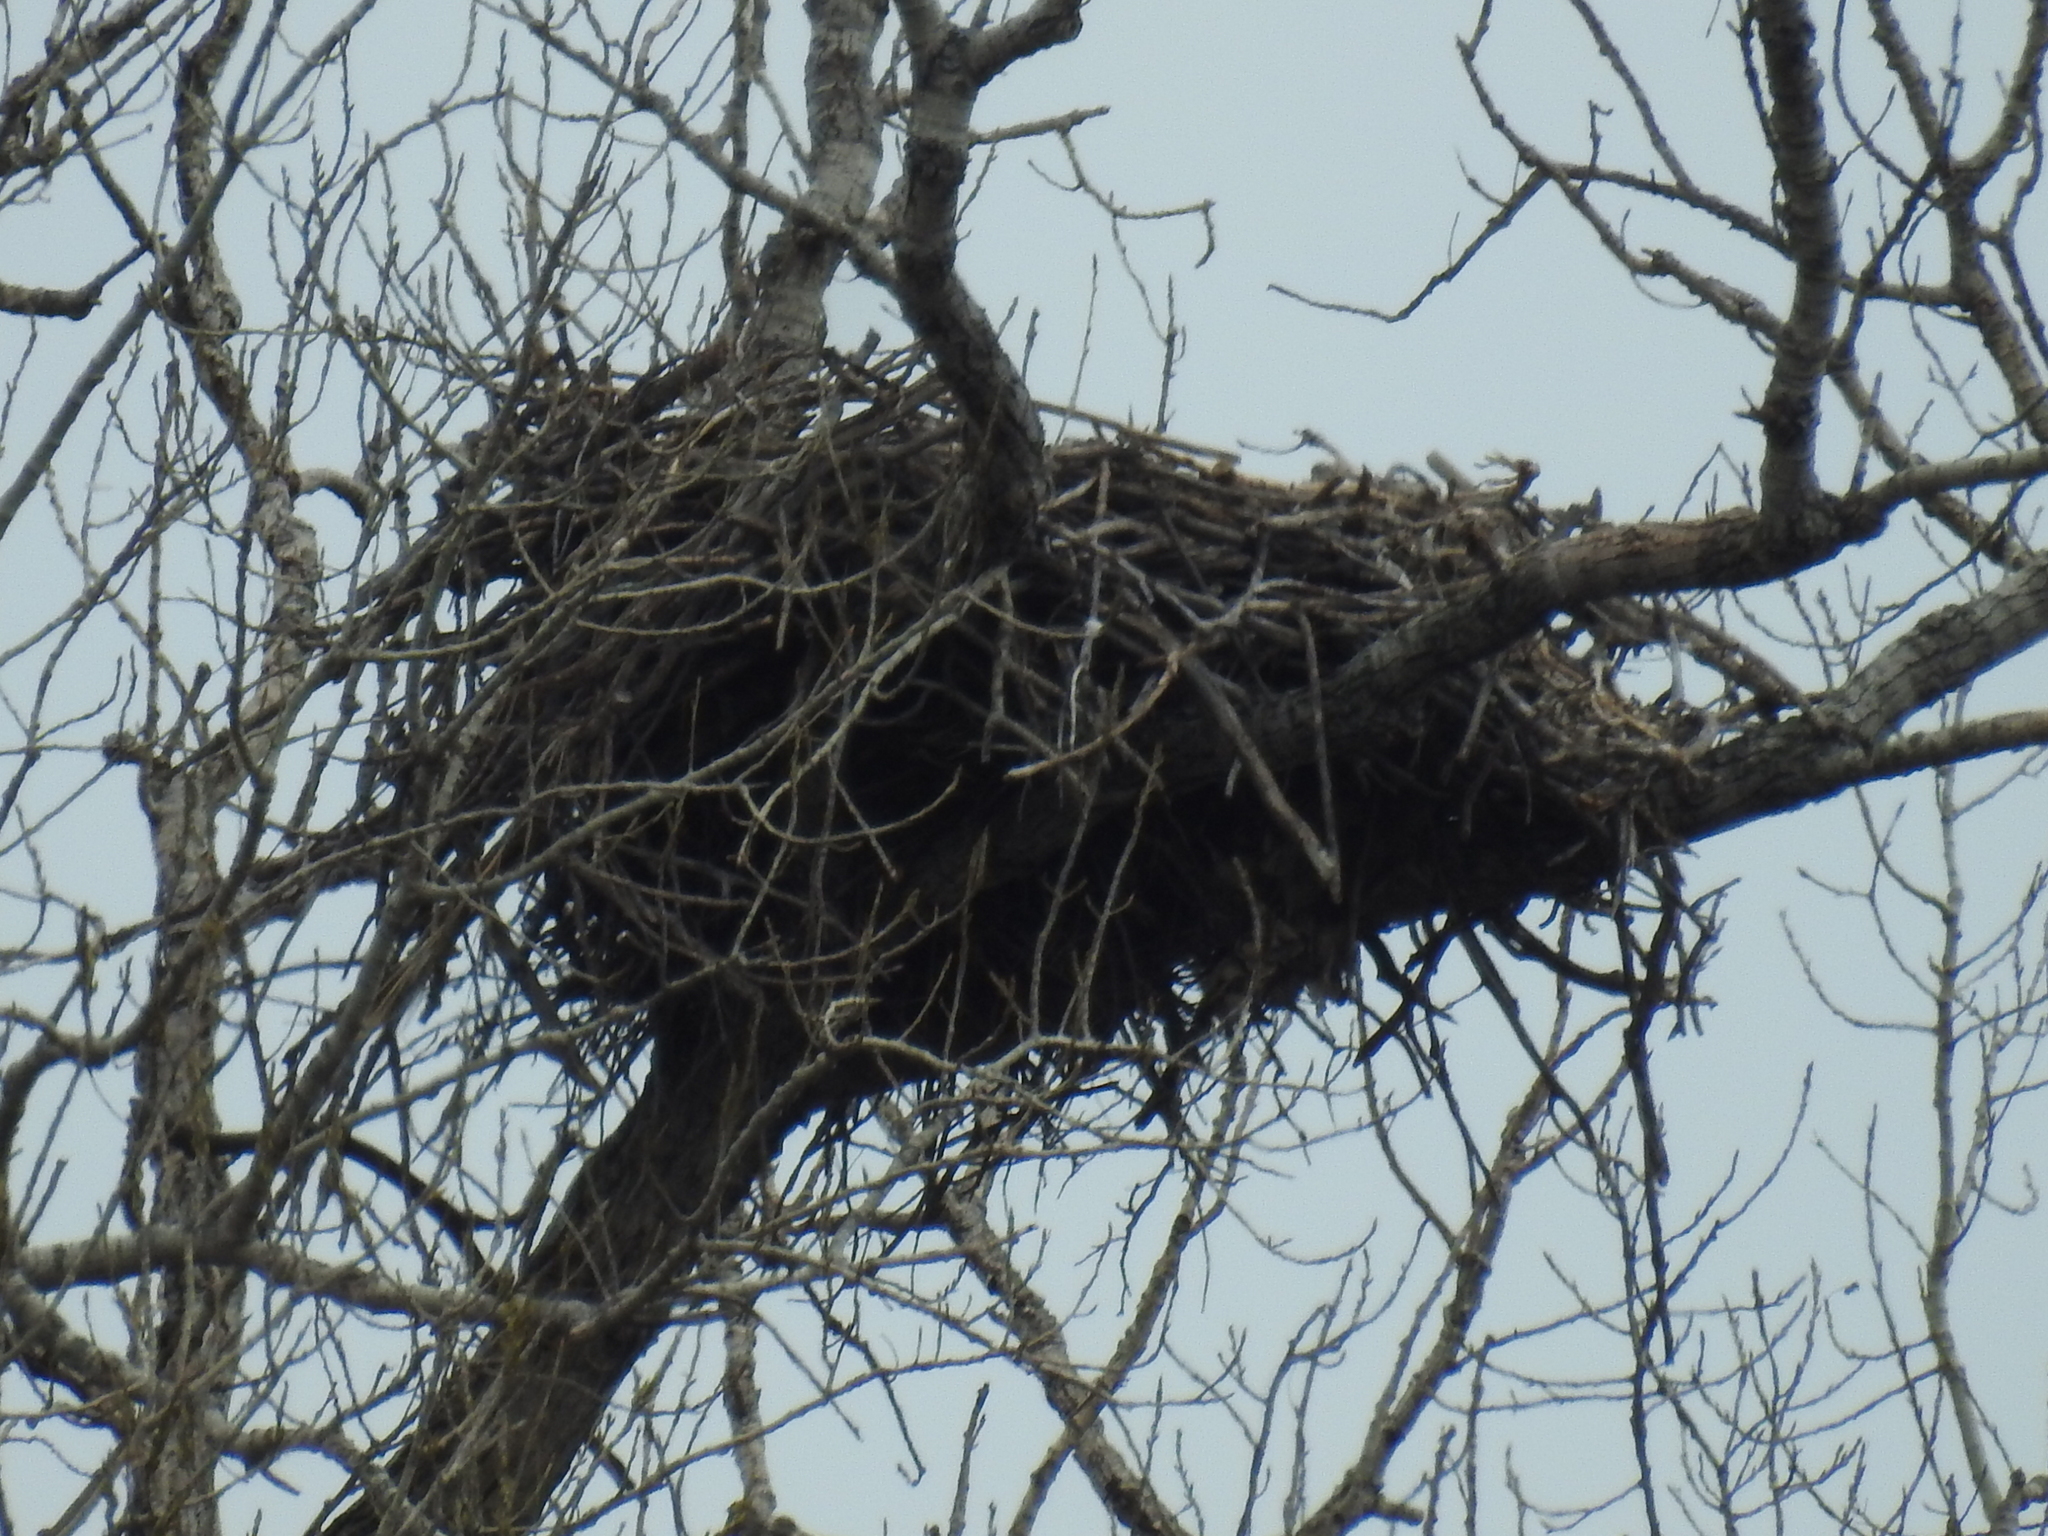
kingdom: Animalia
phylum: Chordata
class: Aves
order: Accipitriformes
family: Accipitridae
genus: Haliaeetus
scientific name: Haliaeetus leucocephalus
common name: Bald eagle
